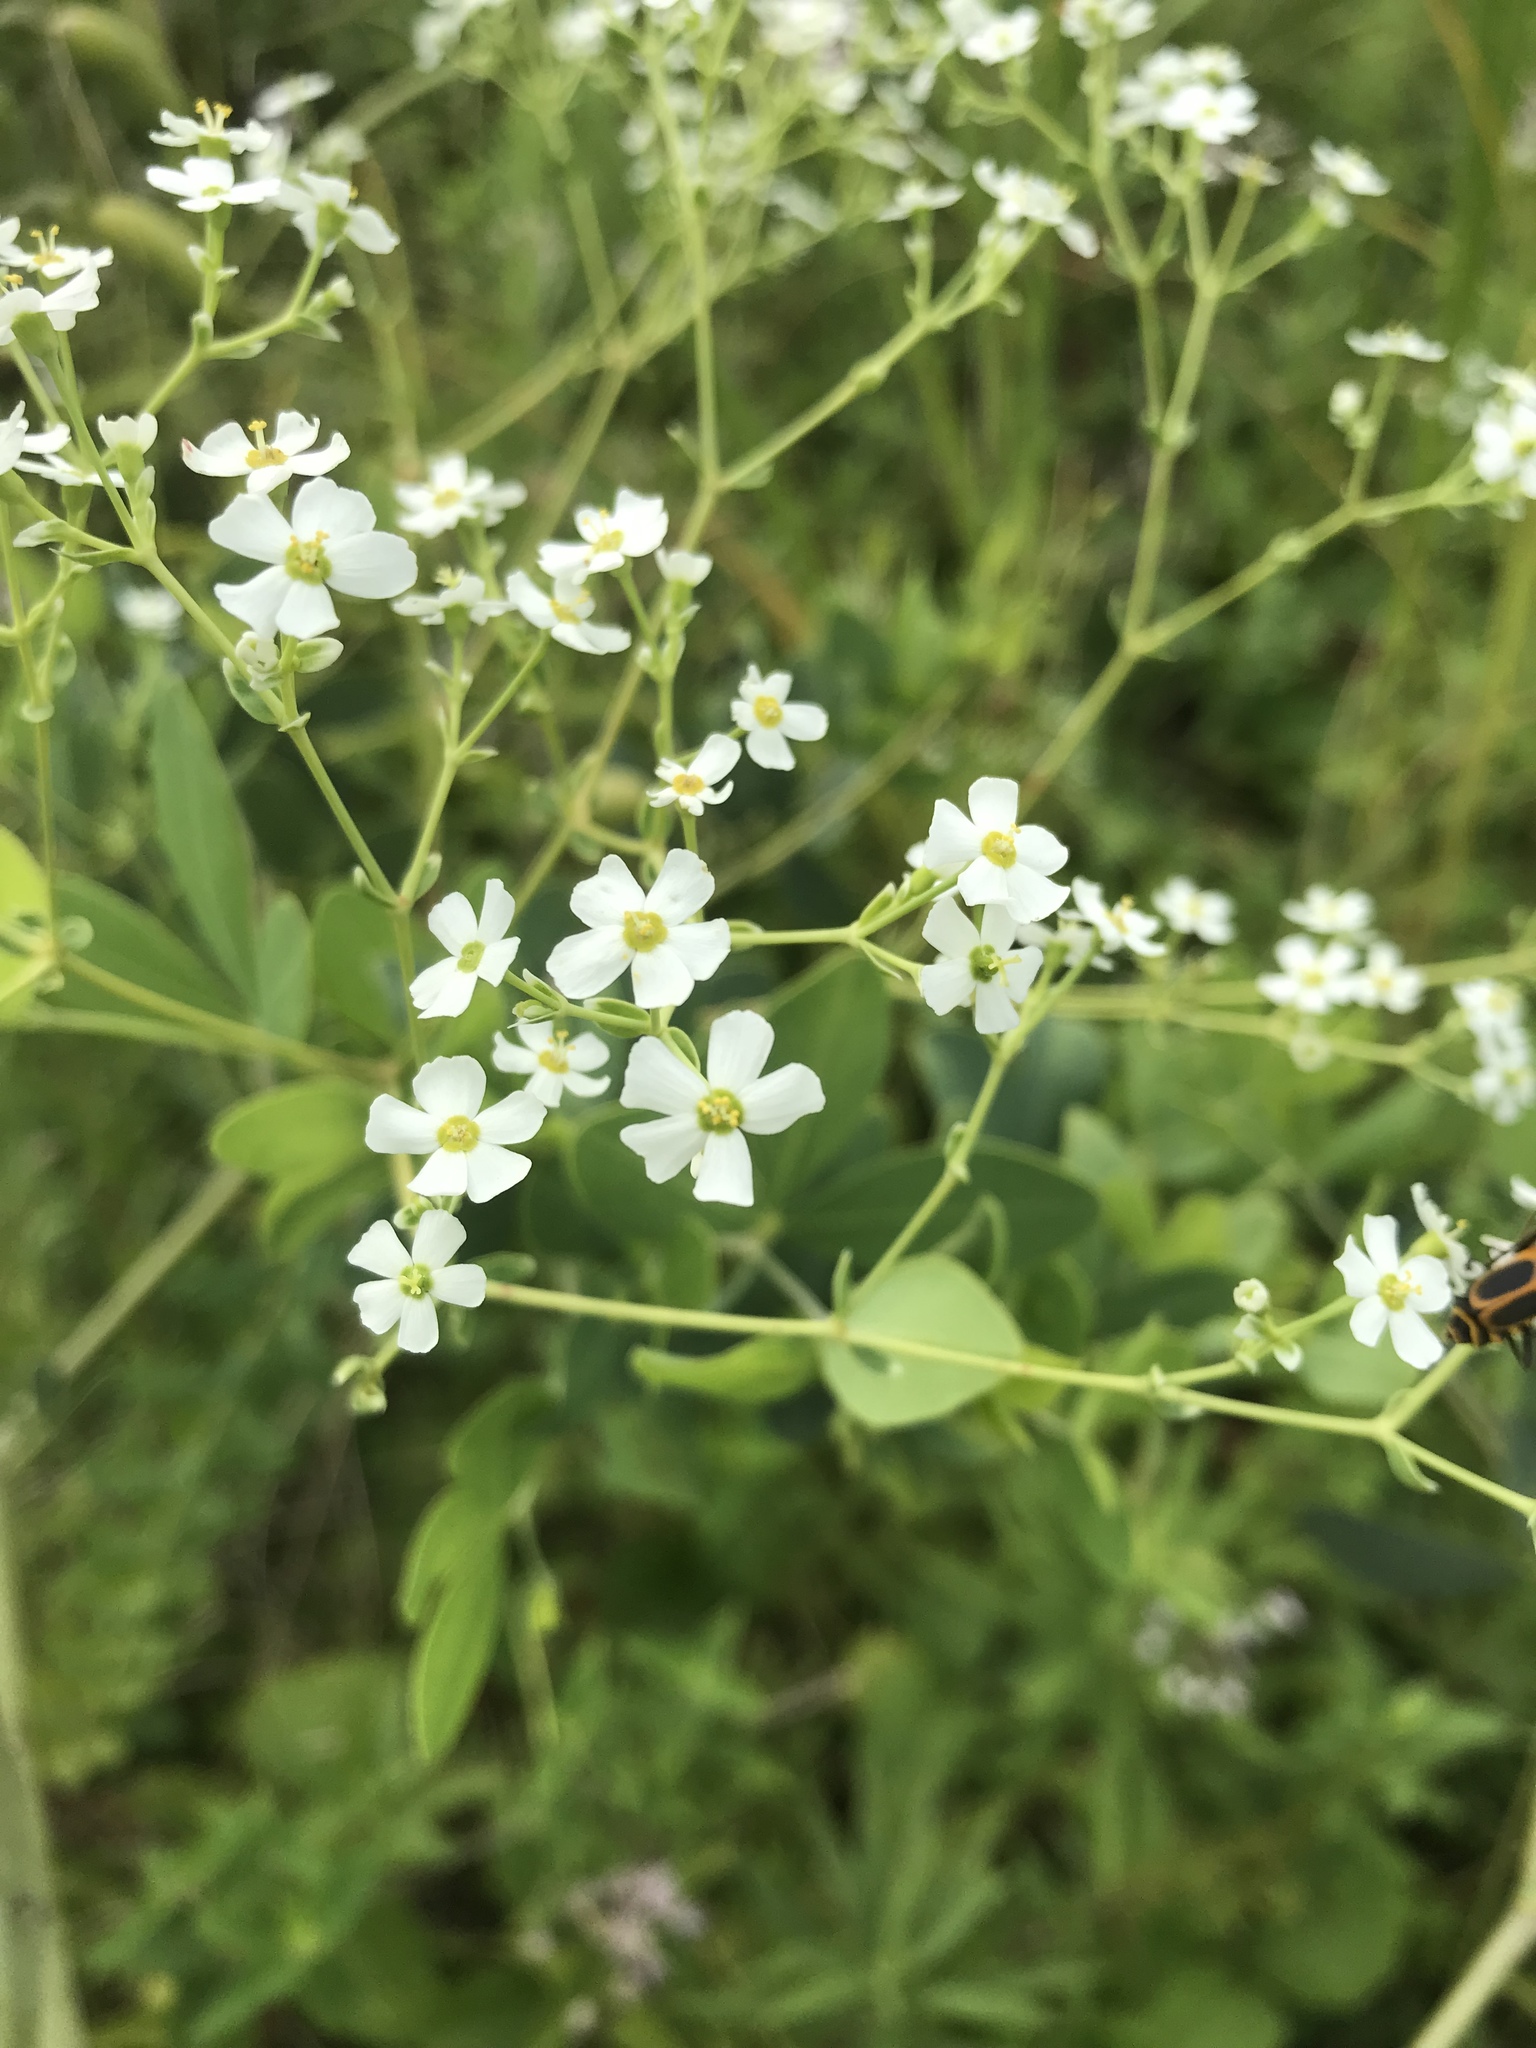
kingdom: Plantae
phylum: Tracheophyta
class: Magnoliopsida
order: Malpighiales
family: Euphorbiaceae
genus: Euphorbia
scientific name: Euphorbia corollata
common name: Flowering spurge
